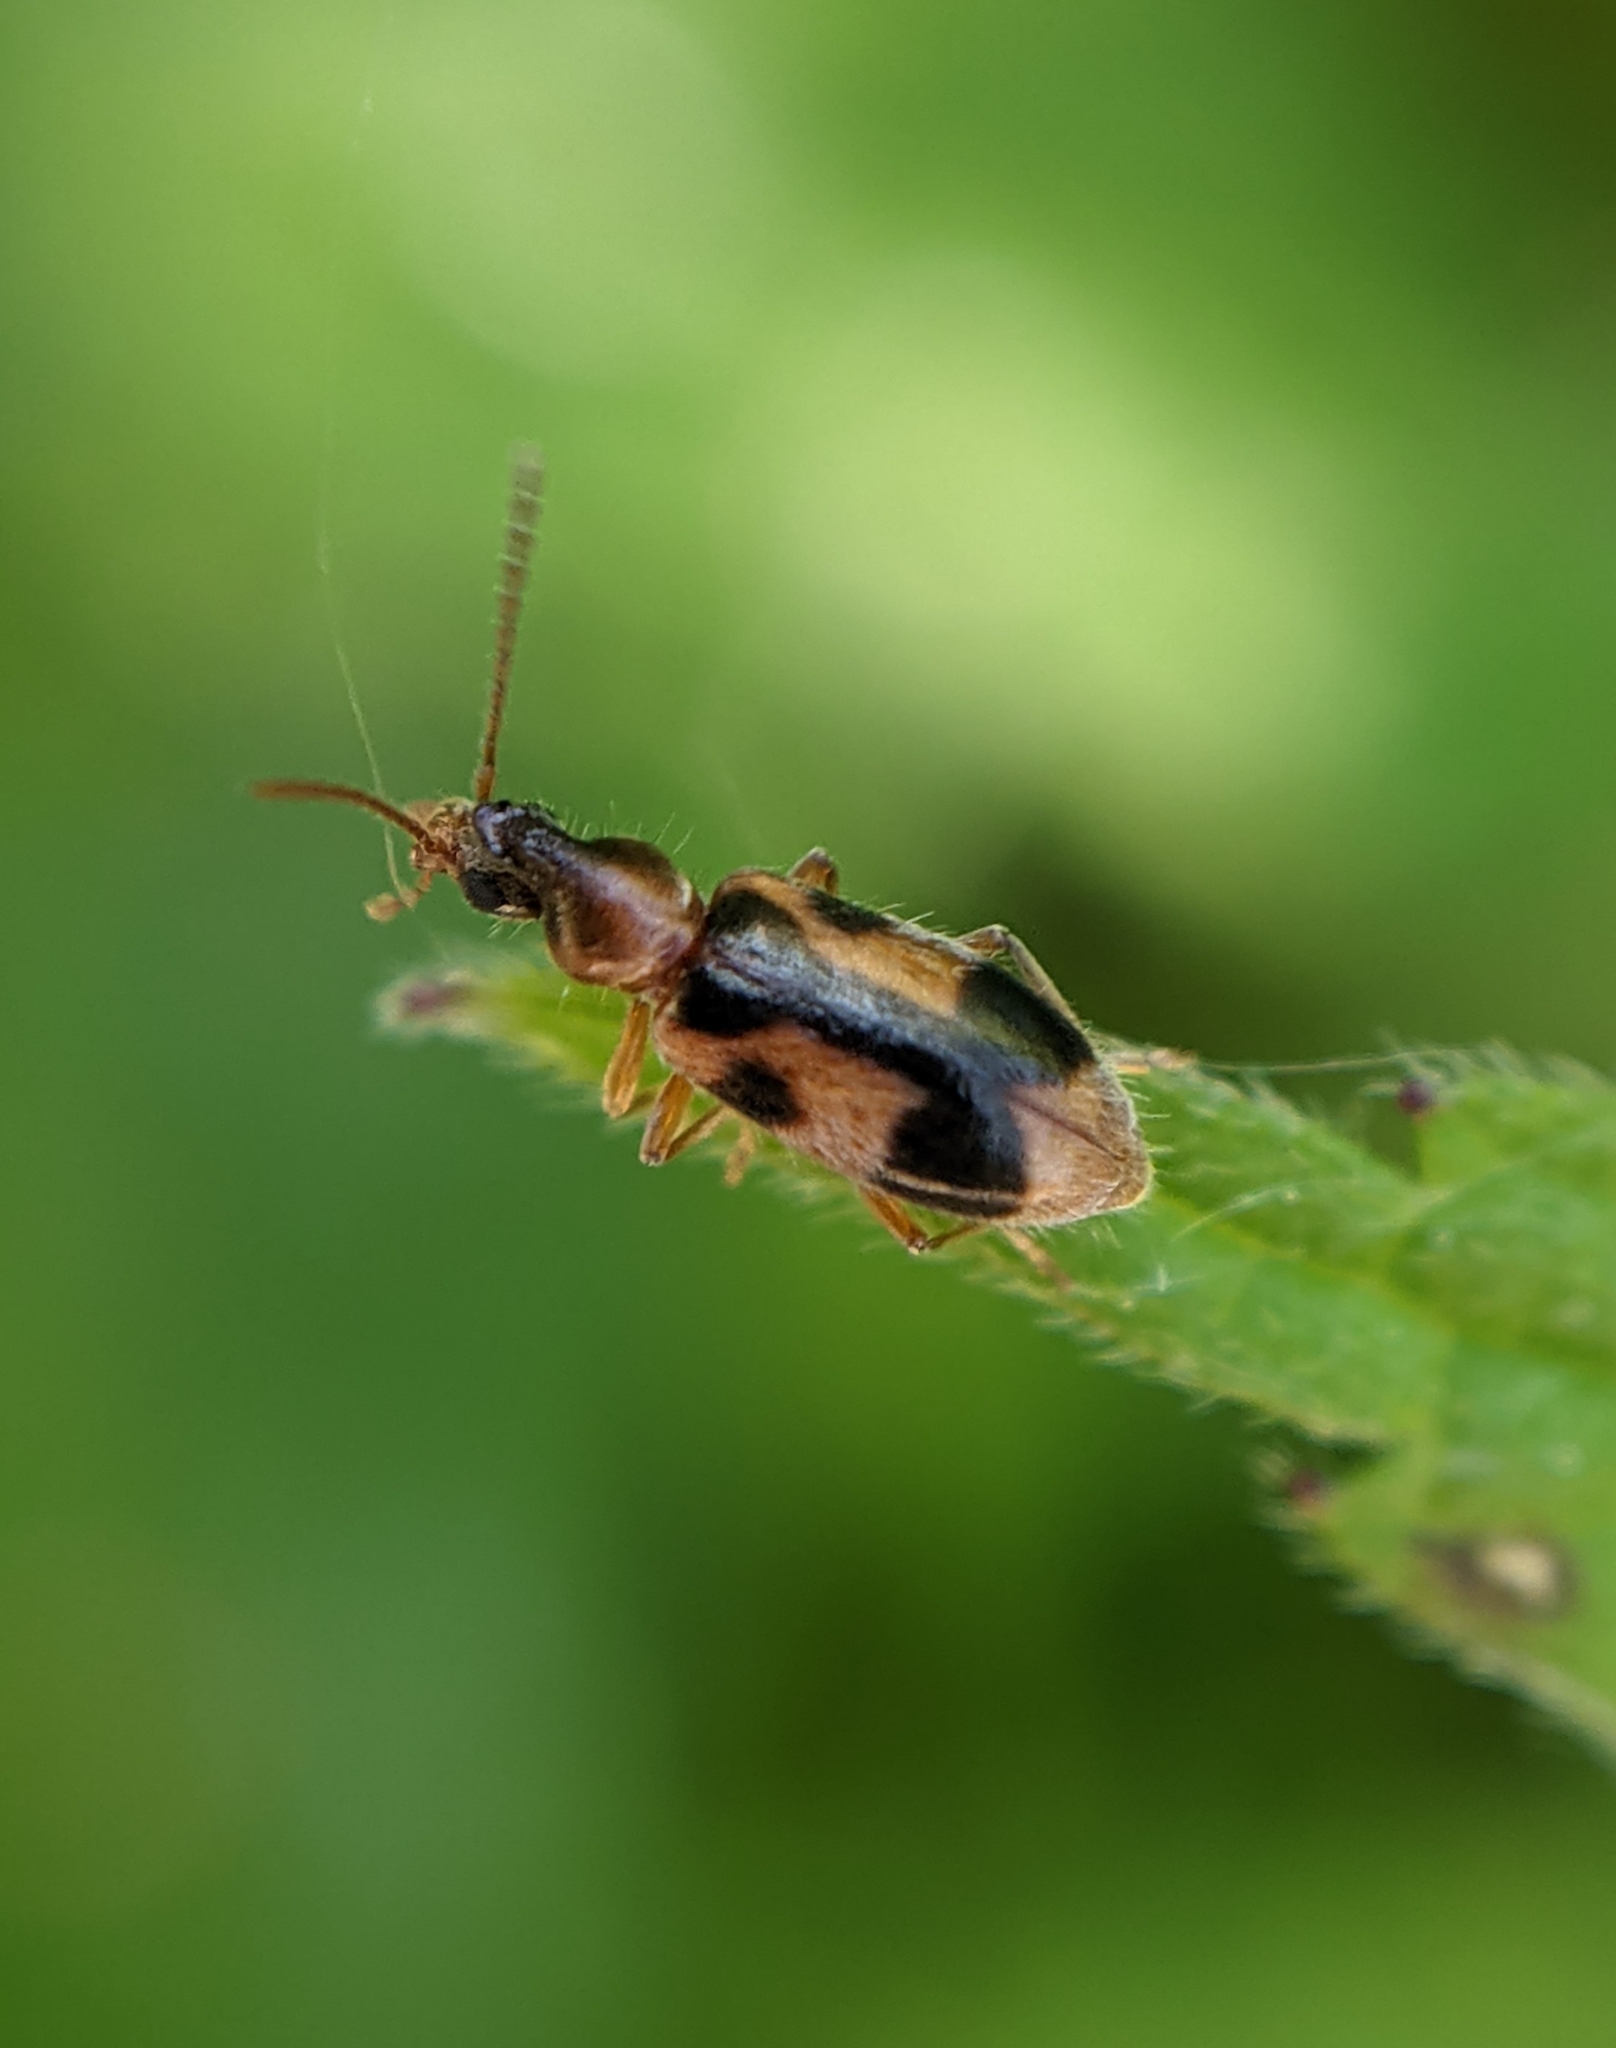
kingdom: Animalia
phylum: Arthropoda
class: Insecta
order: Coleoptera
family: Anthicidae
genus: Notoxus
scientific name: Notoxus monoceros
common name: Monoceros beetle
